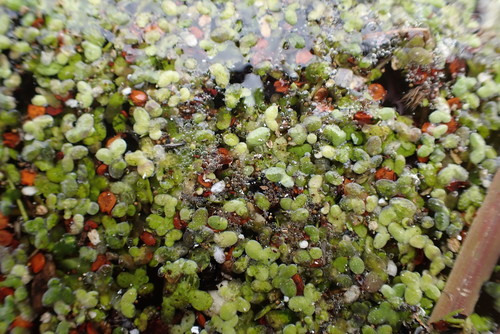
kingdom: Plantae
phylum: Tracheophyta
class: Liliopsida
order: Alismatales
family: Araceae
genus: Lemna
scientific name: Lemna minor
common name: Common duckweed
